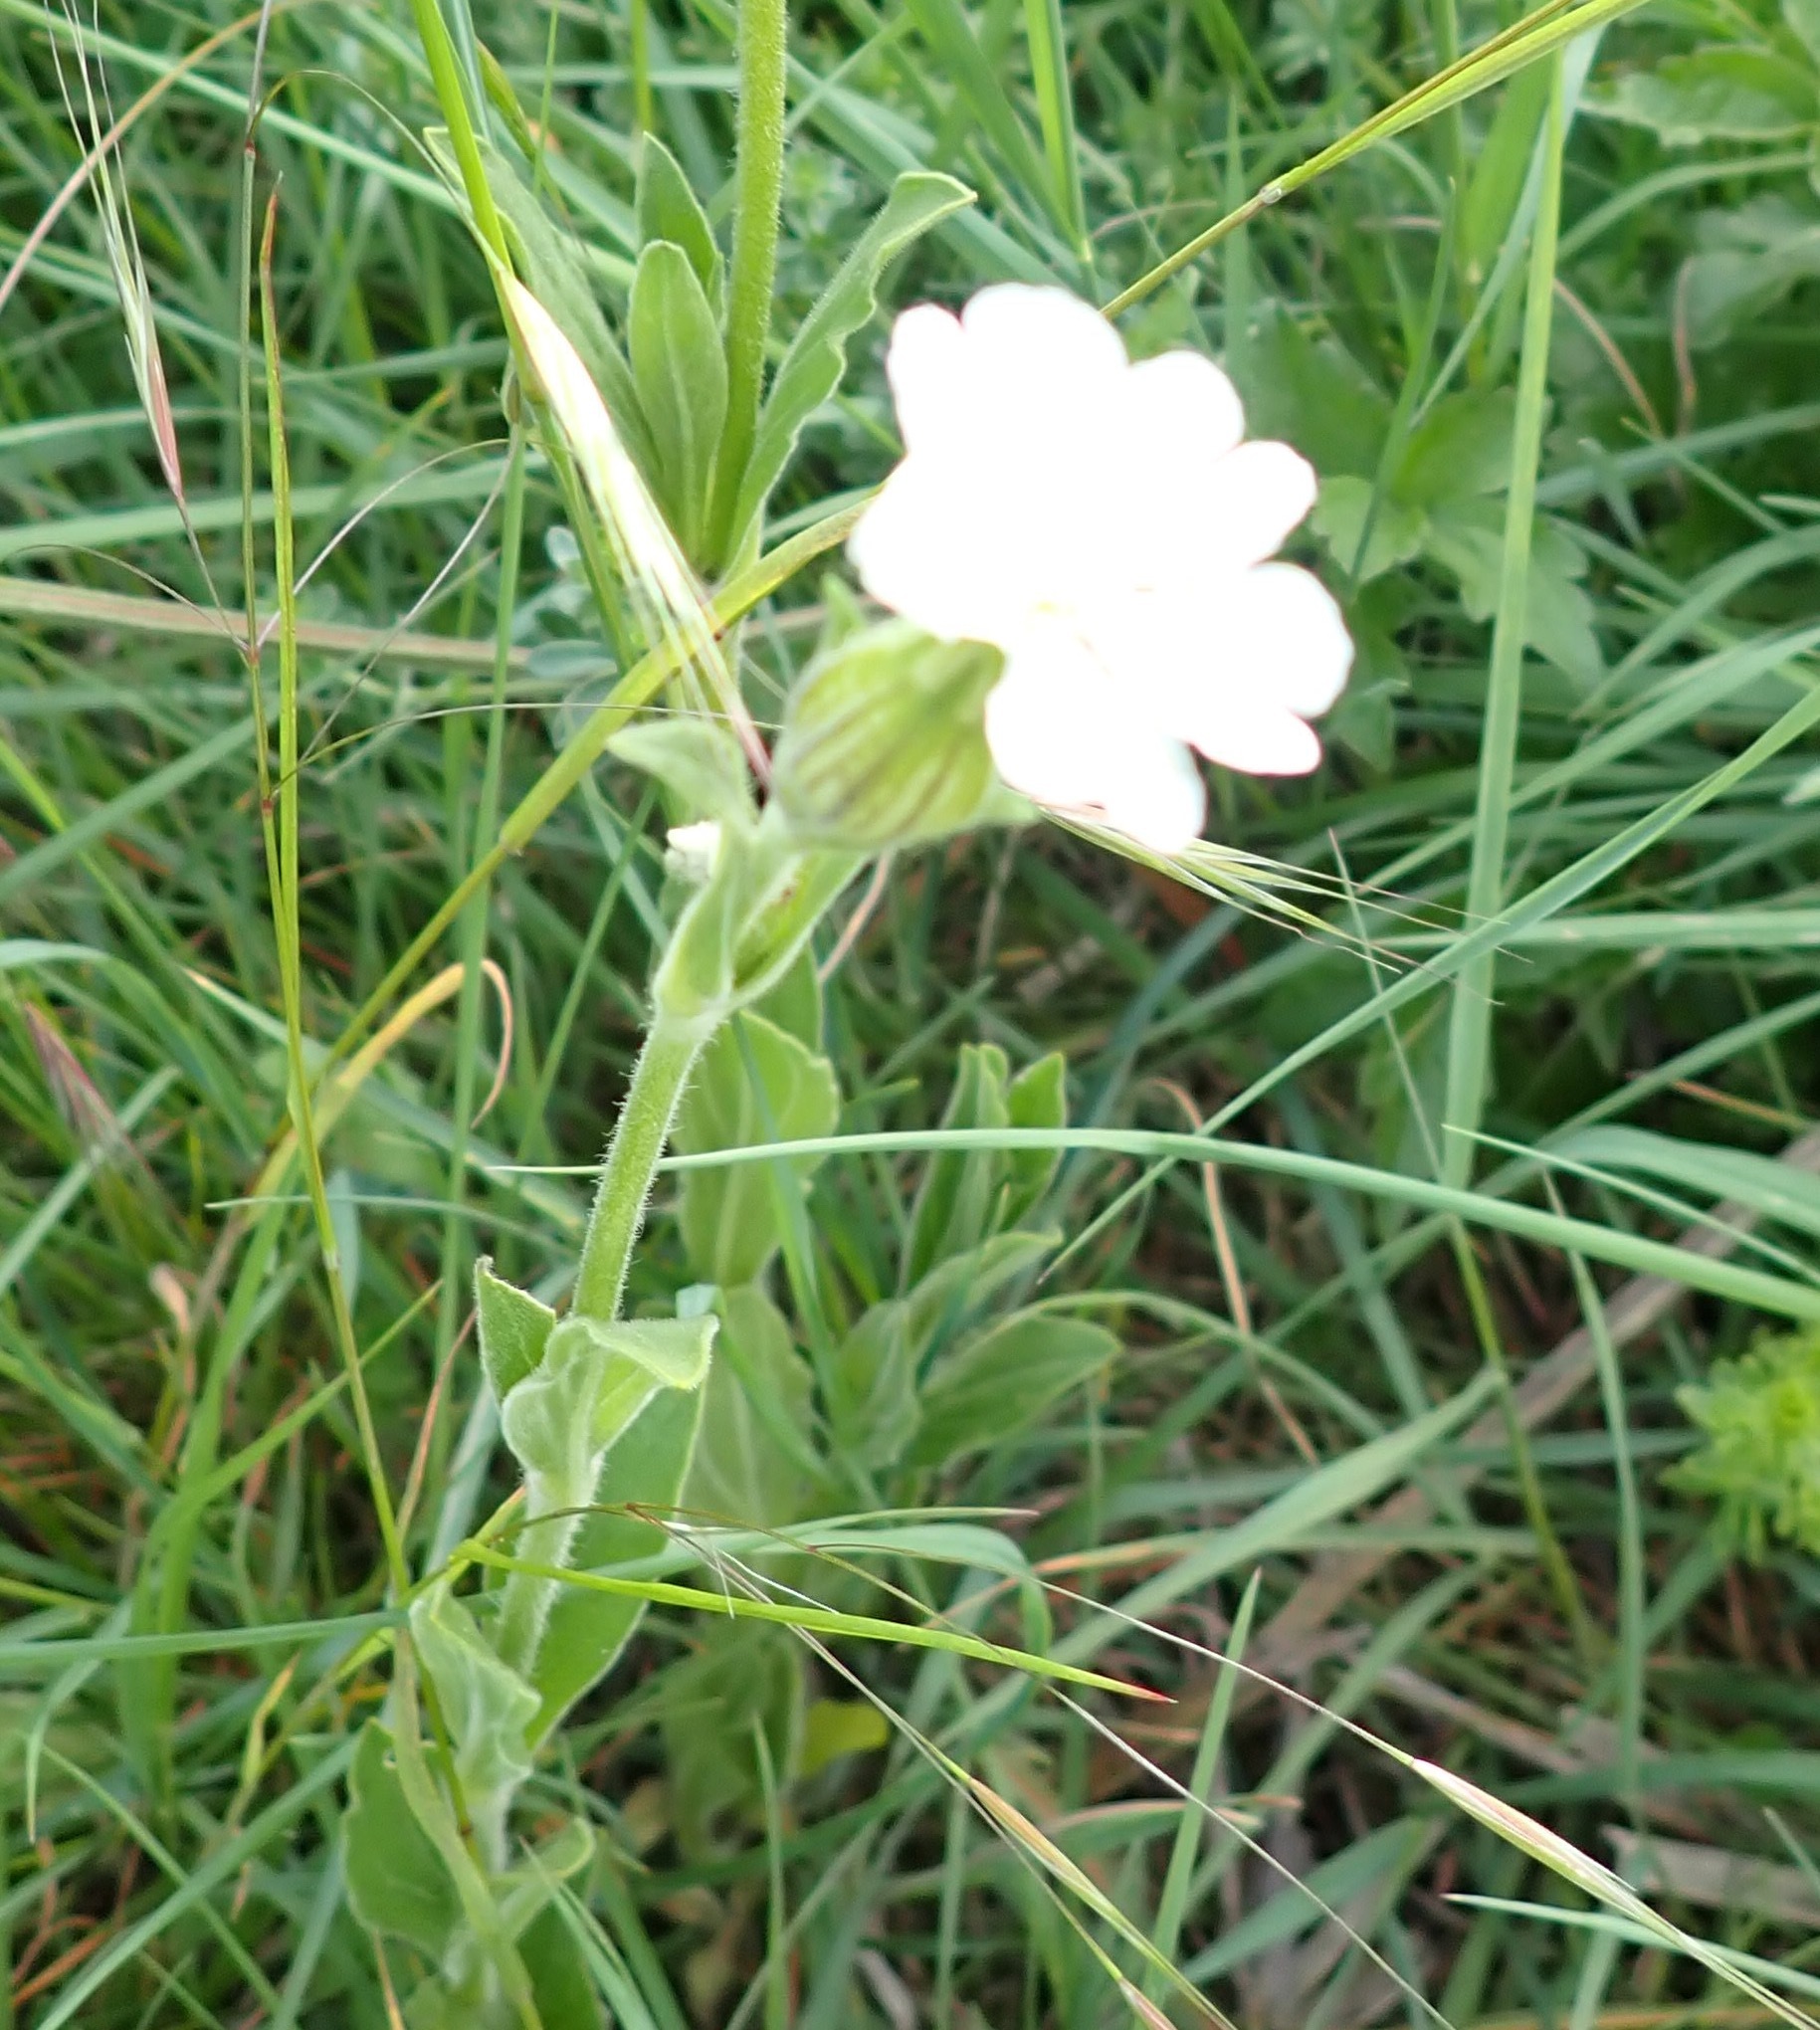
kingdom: Plantae
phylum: Tracheophyta
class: Magnoliopsida
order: Caryophyllales
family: Caryophyllaceae
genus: Silene
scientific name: Silene latifolia
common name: White campion
